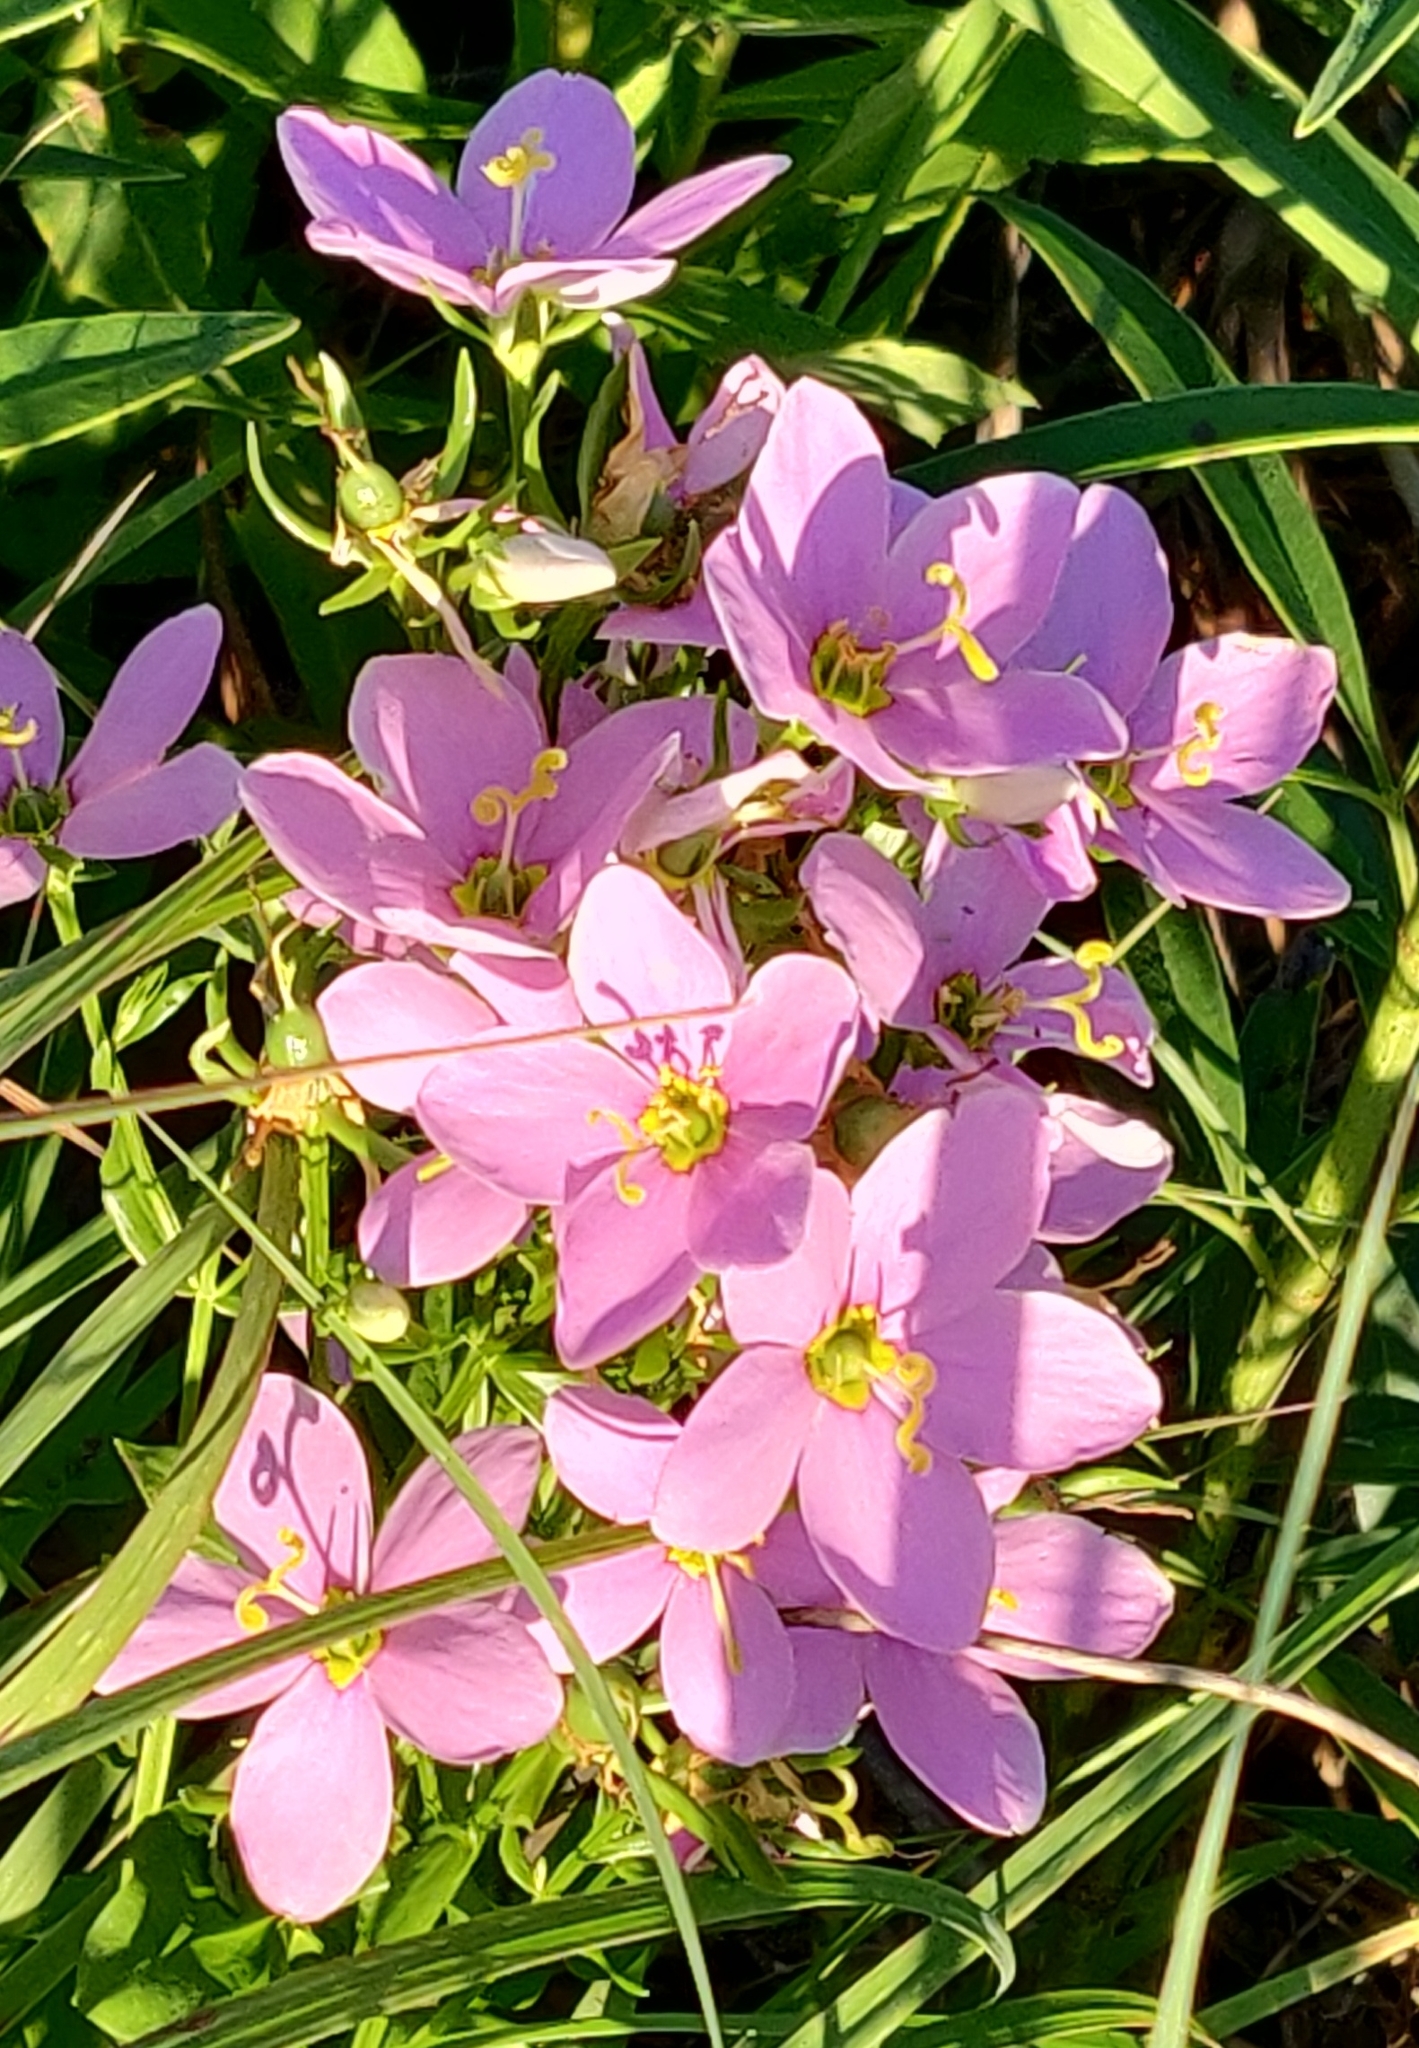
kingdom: Plantae
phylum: Tracheophyta
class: Magnoliopsida
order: Gentianales
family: Gentianaceae
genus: Sabatia
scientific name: Sabatia angularis
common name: Rose-pink
